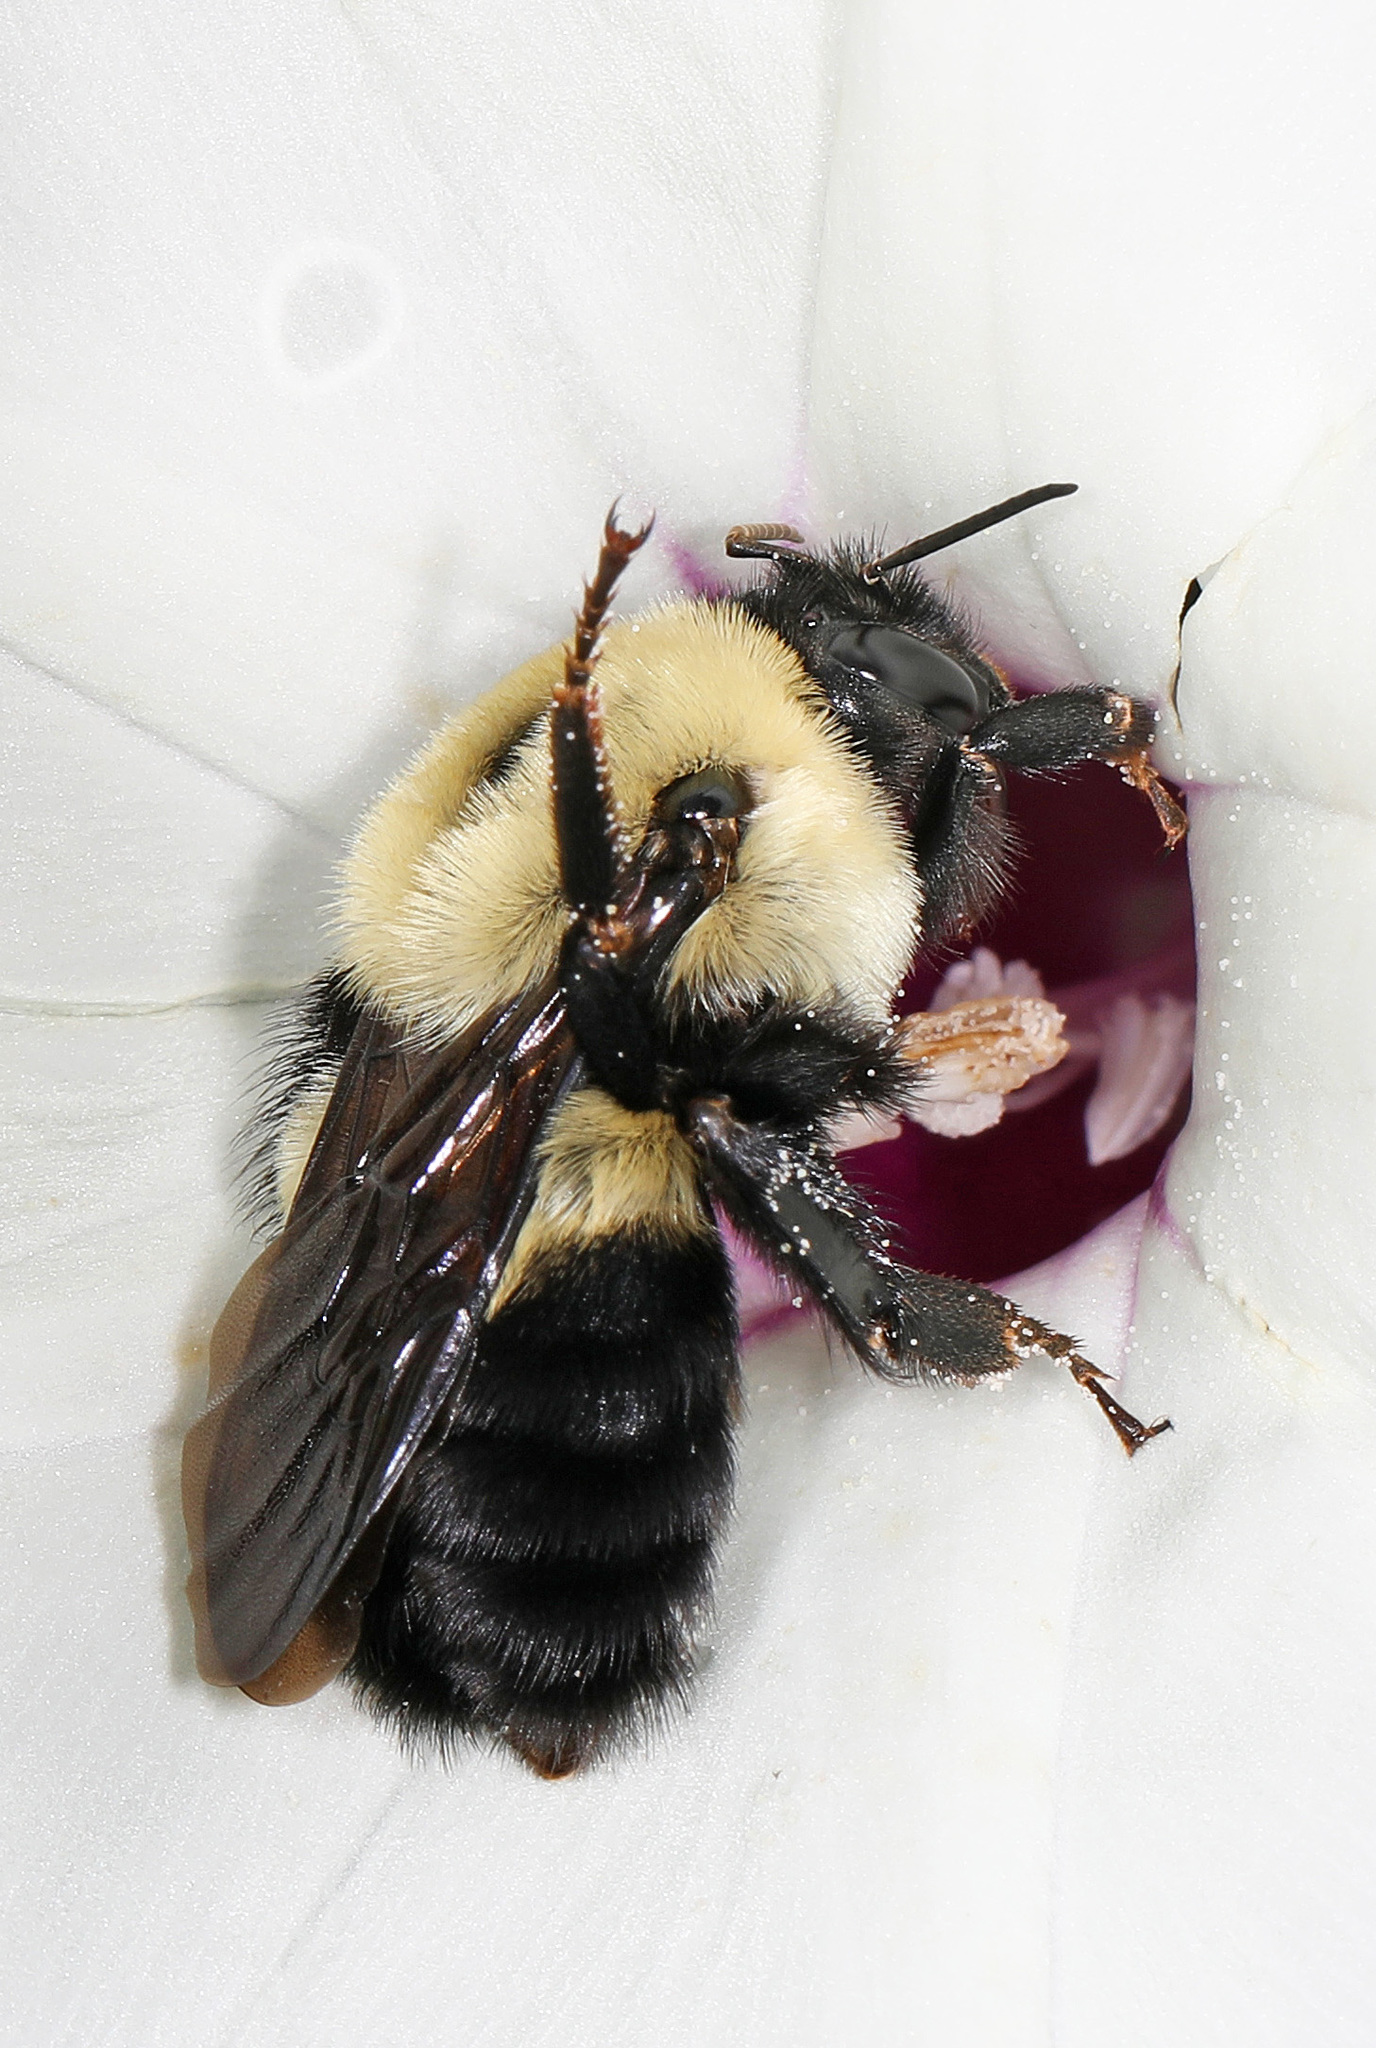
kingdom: Animalia
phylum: Arthropoda
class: Insecta
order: Hymenoptera
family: Apidae
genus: Bombus
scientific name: Bombus griseocollis
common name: Brown-belted bumble bee
